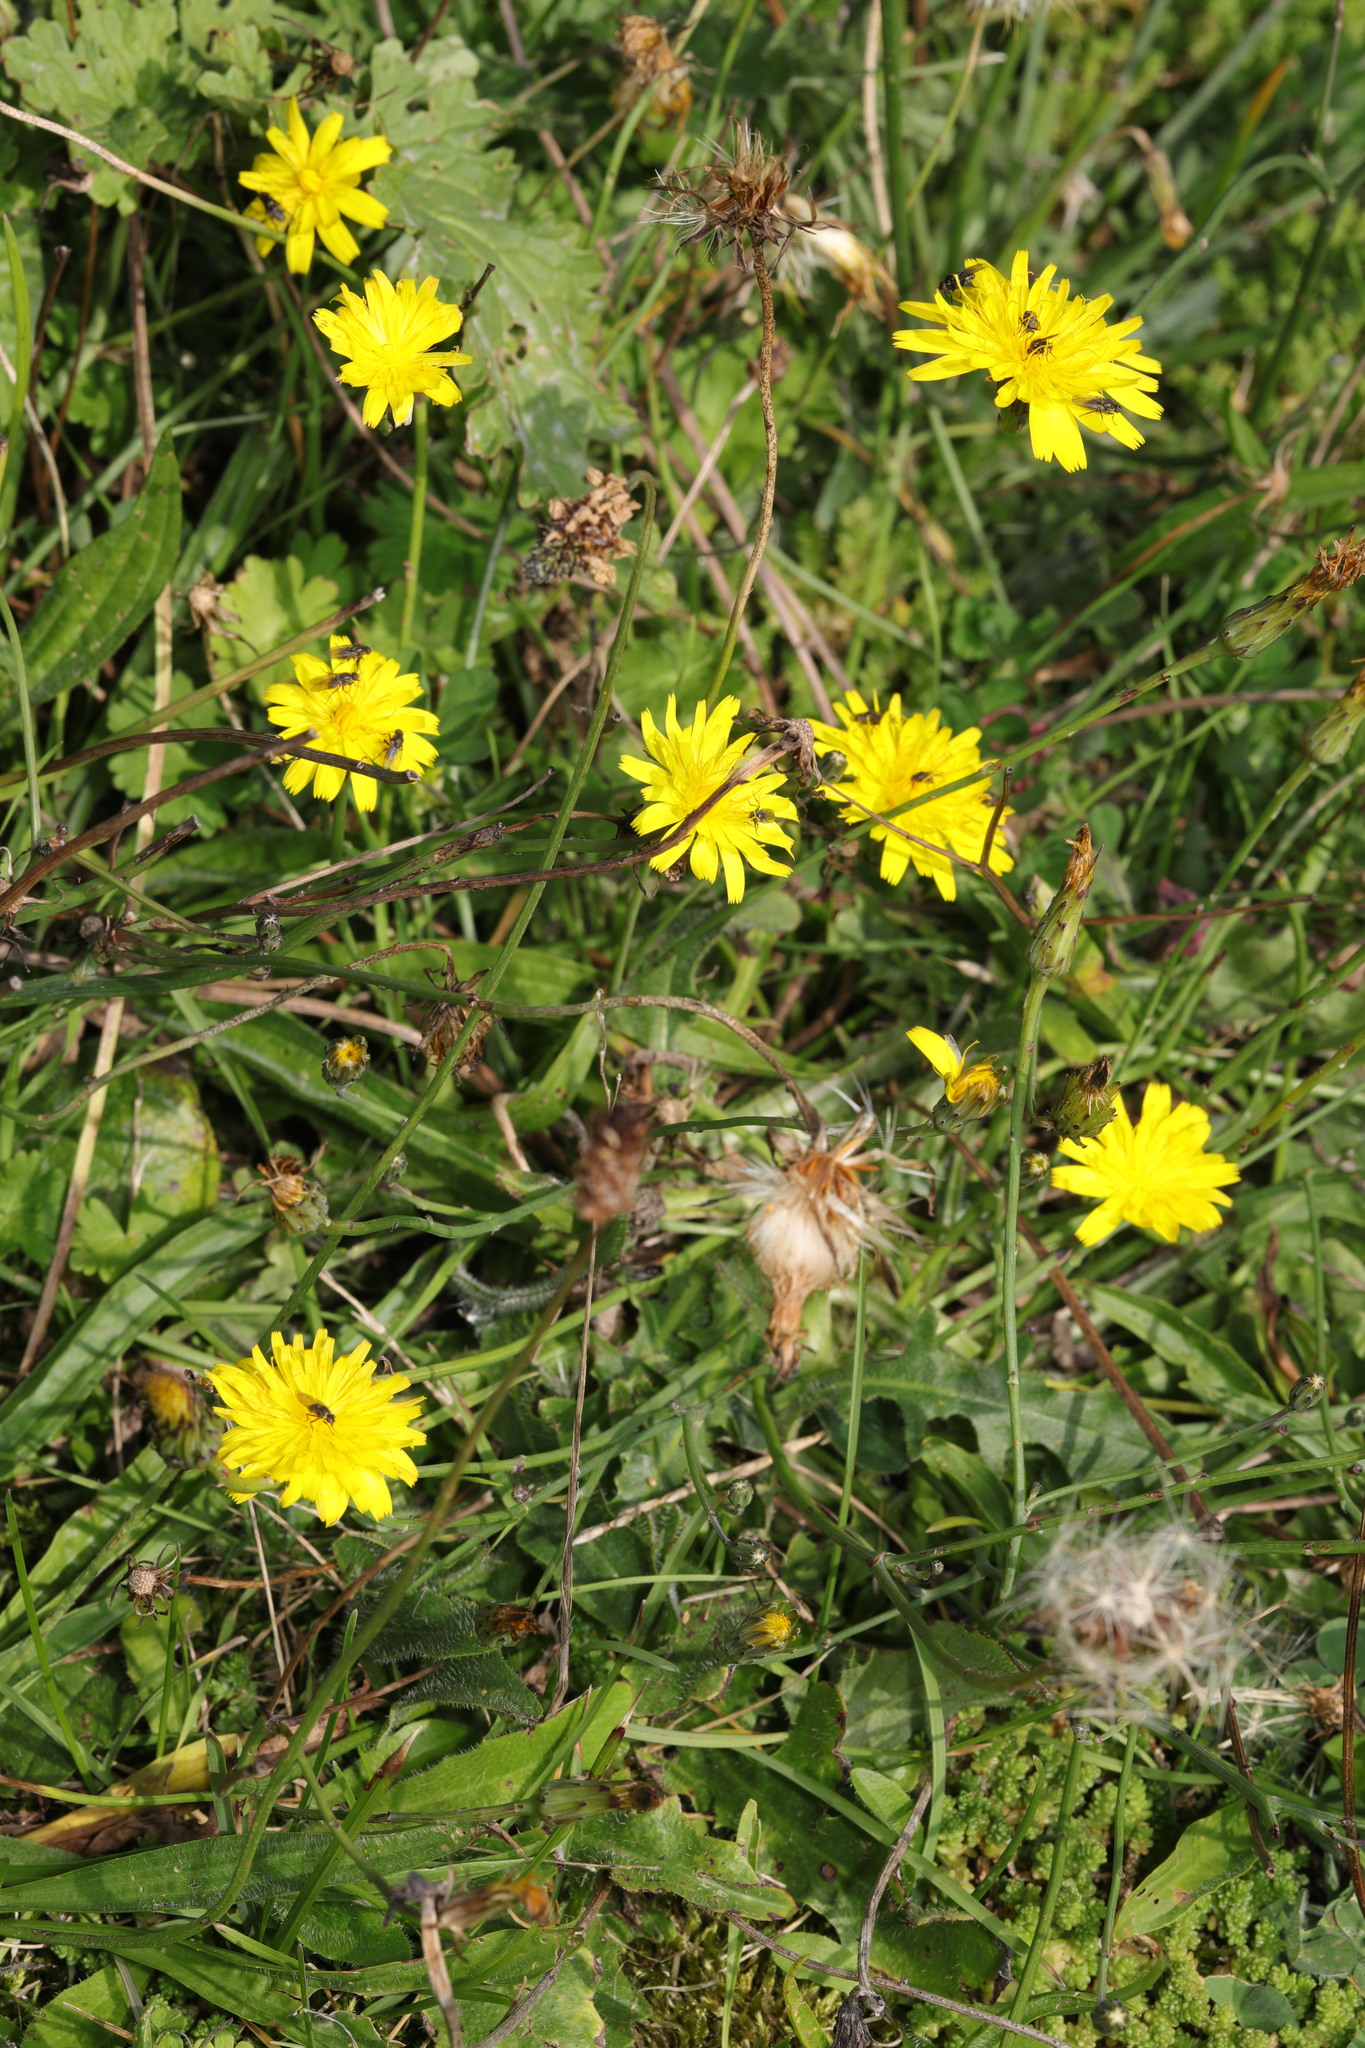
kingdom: Plantae
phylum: Tracheophyta
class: Magnoliopsida
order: Asterales
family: Asteraceae
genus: Hypochaeris
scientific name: Hypochaeris radicata
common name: Flatweed
